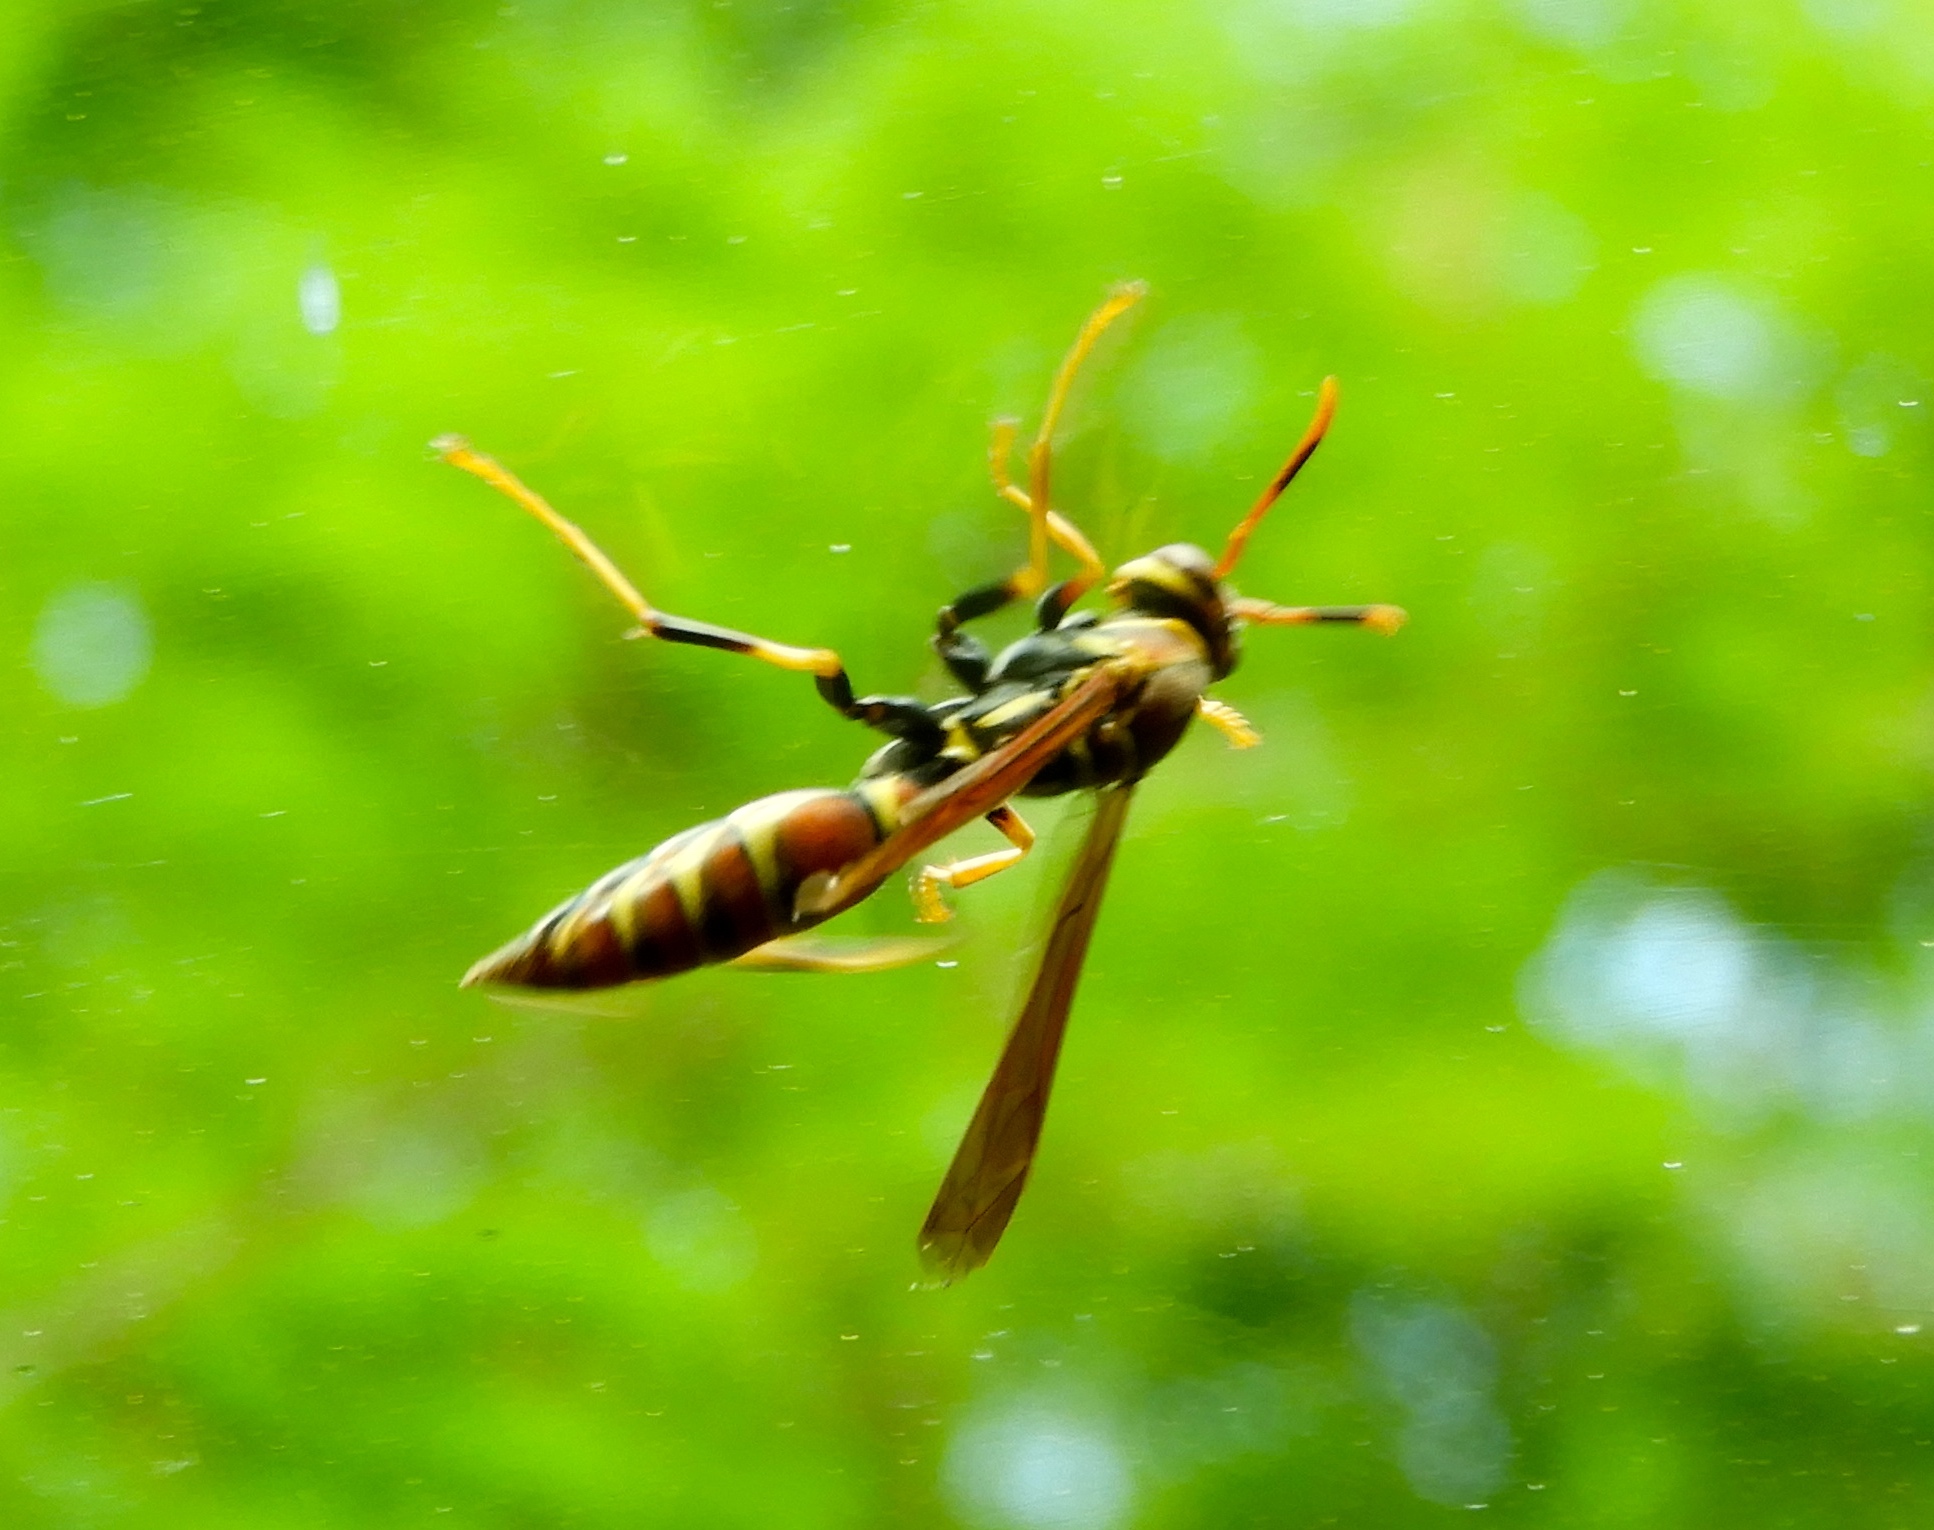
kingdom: Animalia
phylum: Arthropoda
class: Insecta
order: Hymenoptera
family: Eumenidae
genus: Polistes
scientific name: Polistes instabilis
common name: Unstable paper wasp
